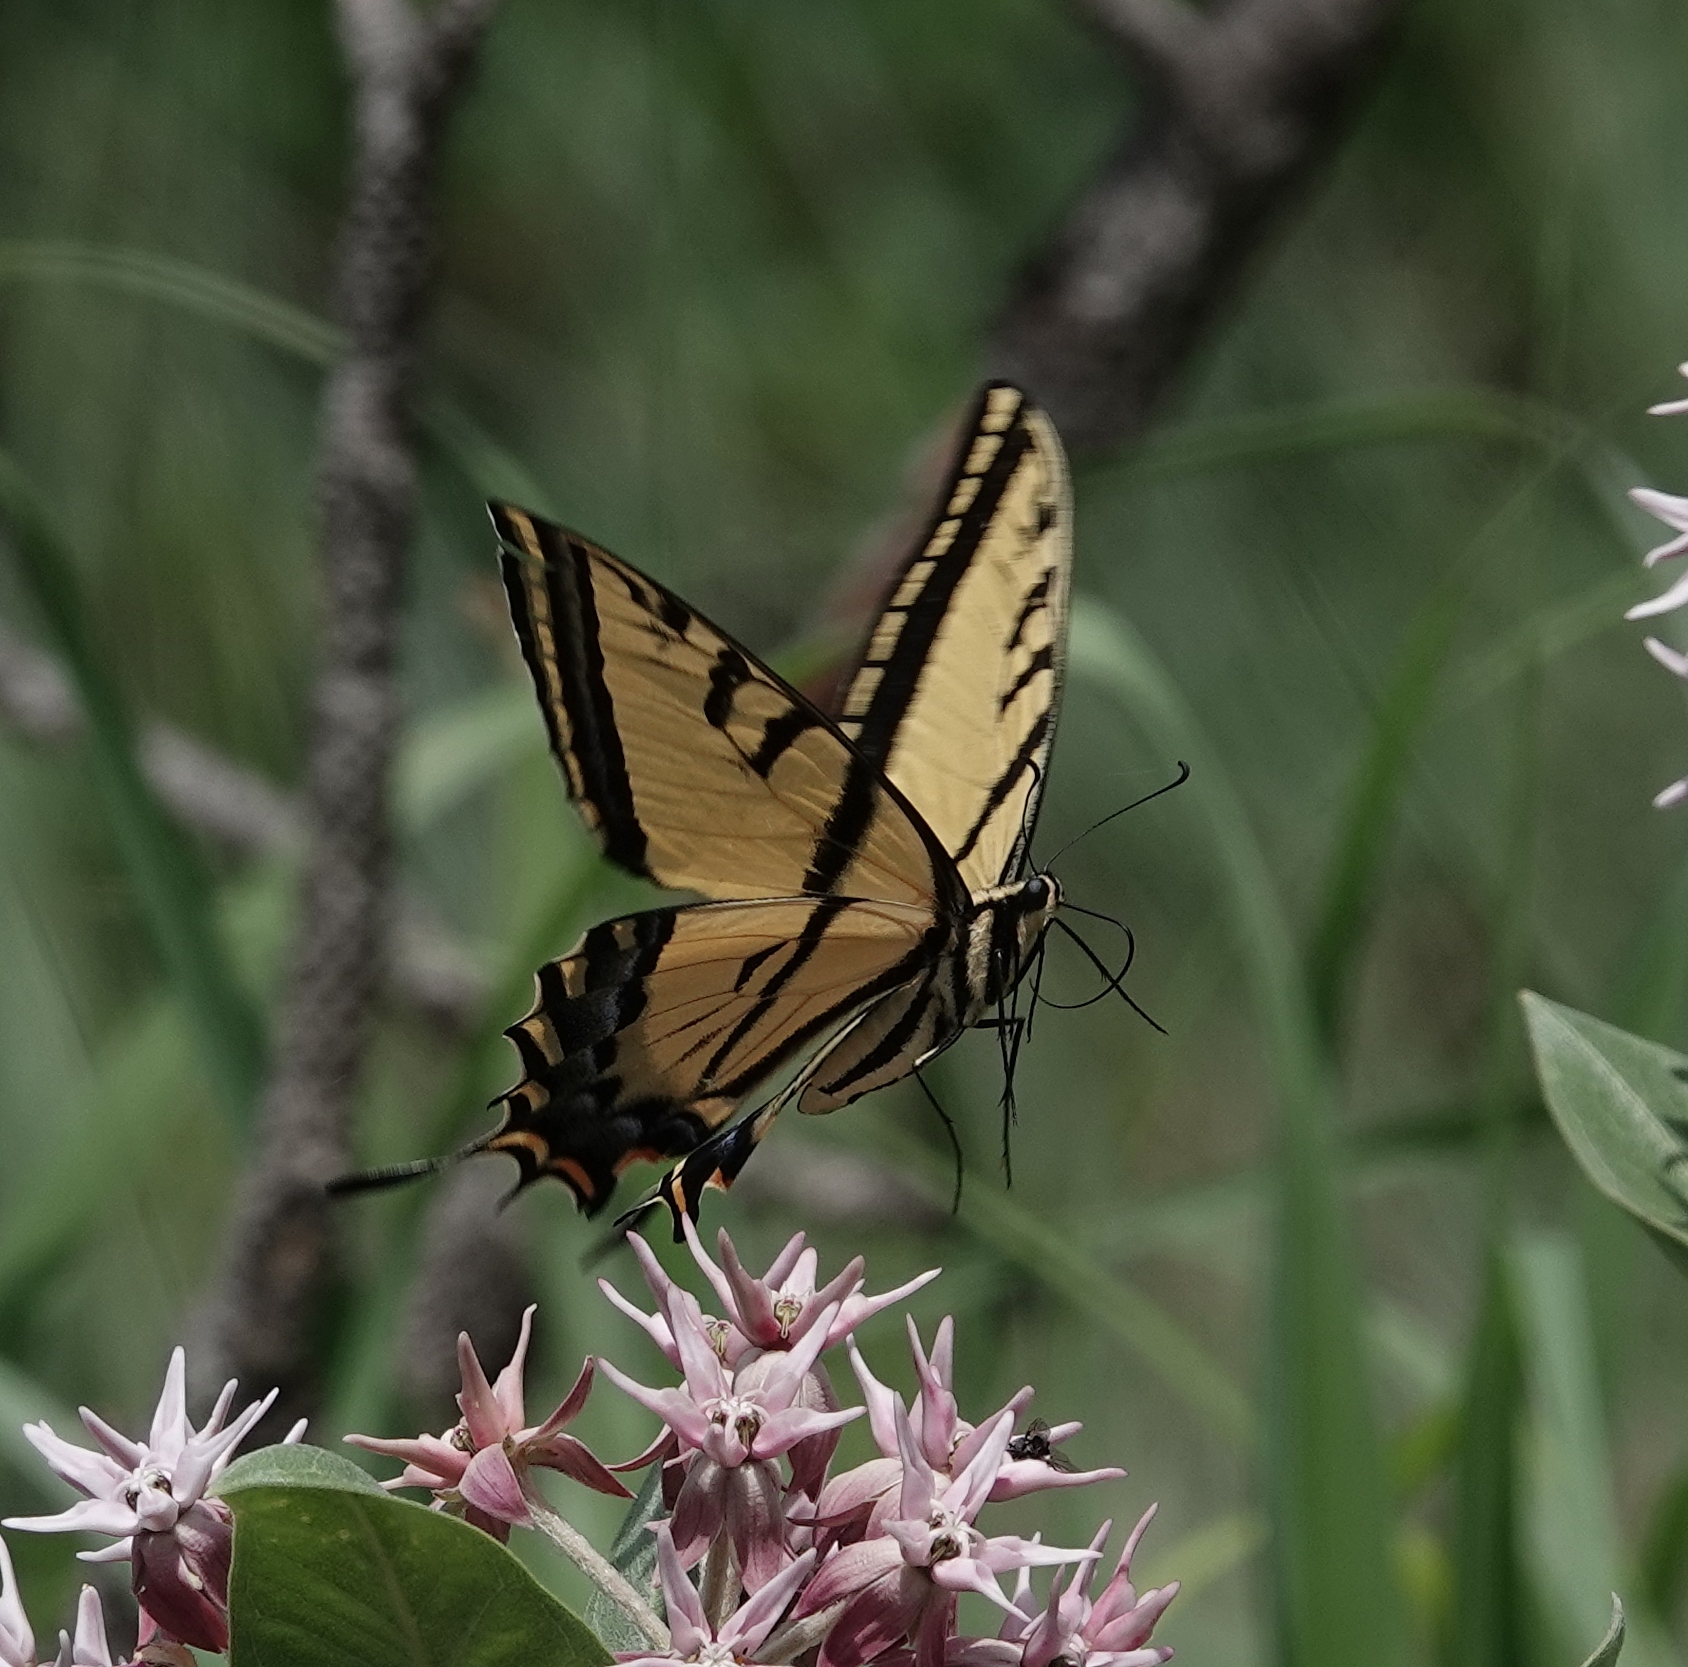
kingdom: Animalia
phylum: Arthropoda
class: Insecta
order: Lepidoptera
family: Papilionidae
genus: Papilio
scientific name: Papilio multicaudata
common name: Two-tailed tiger swallowtail
